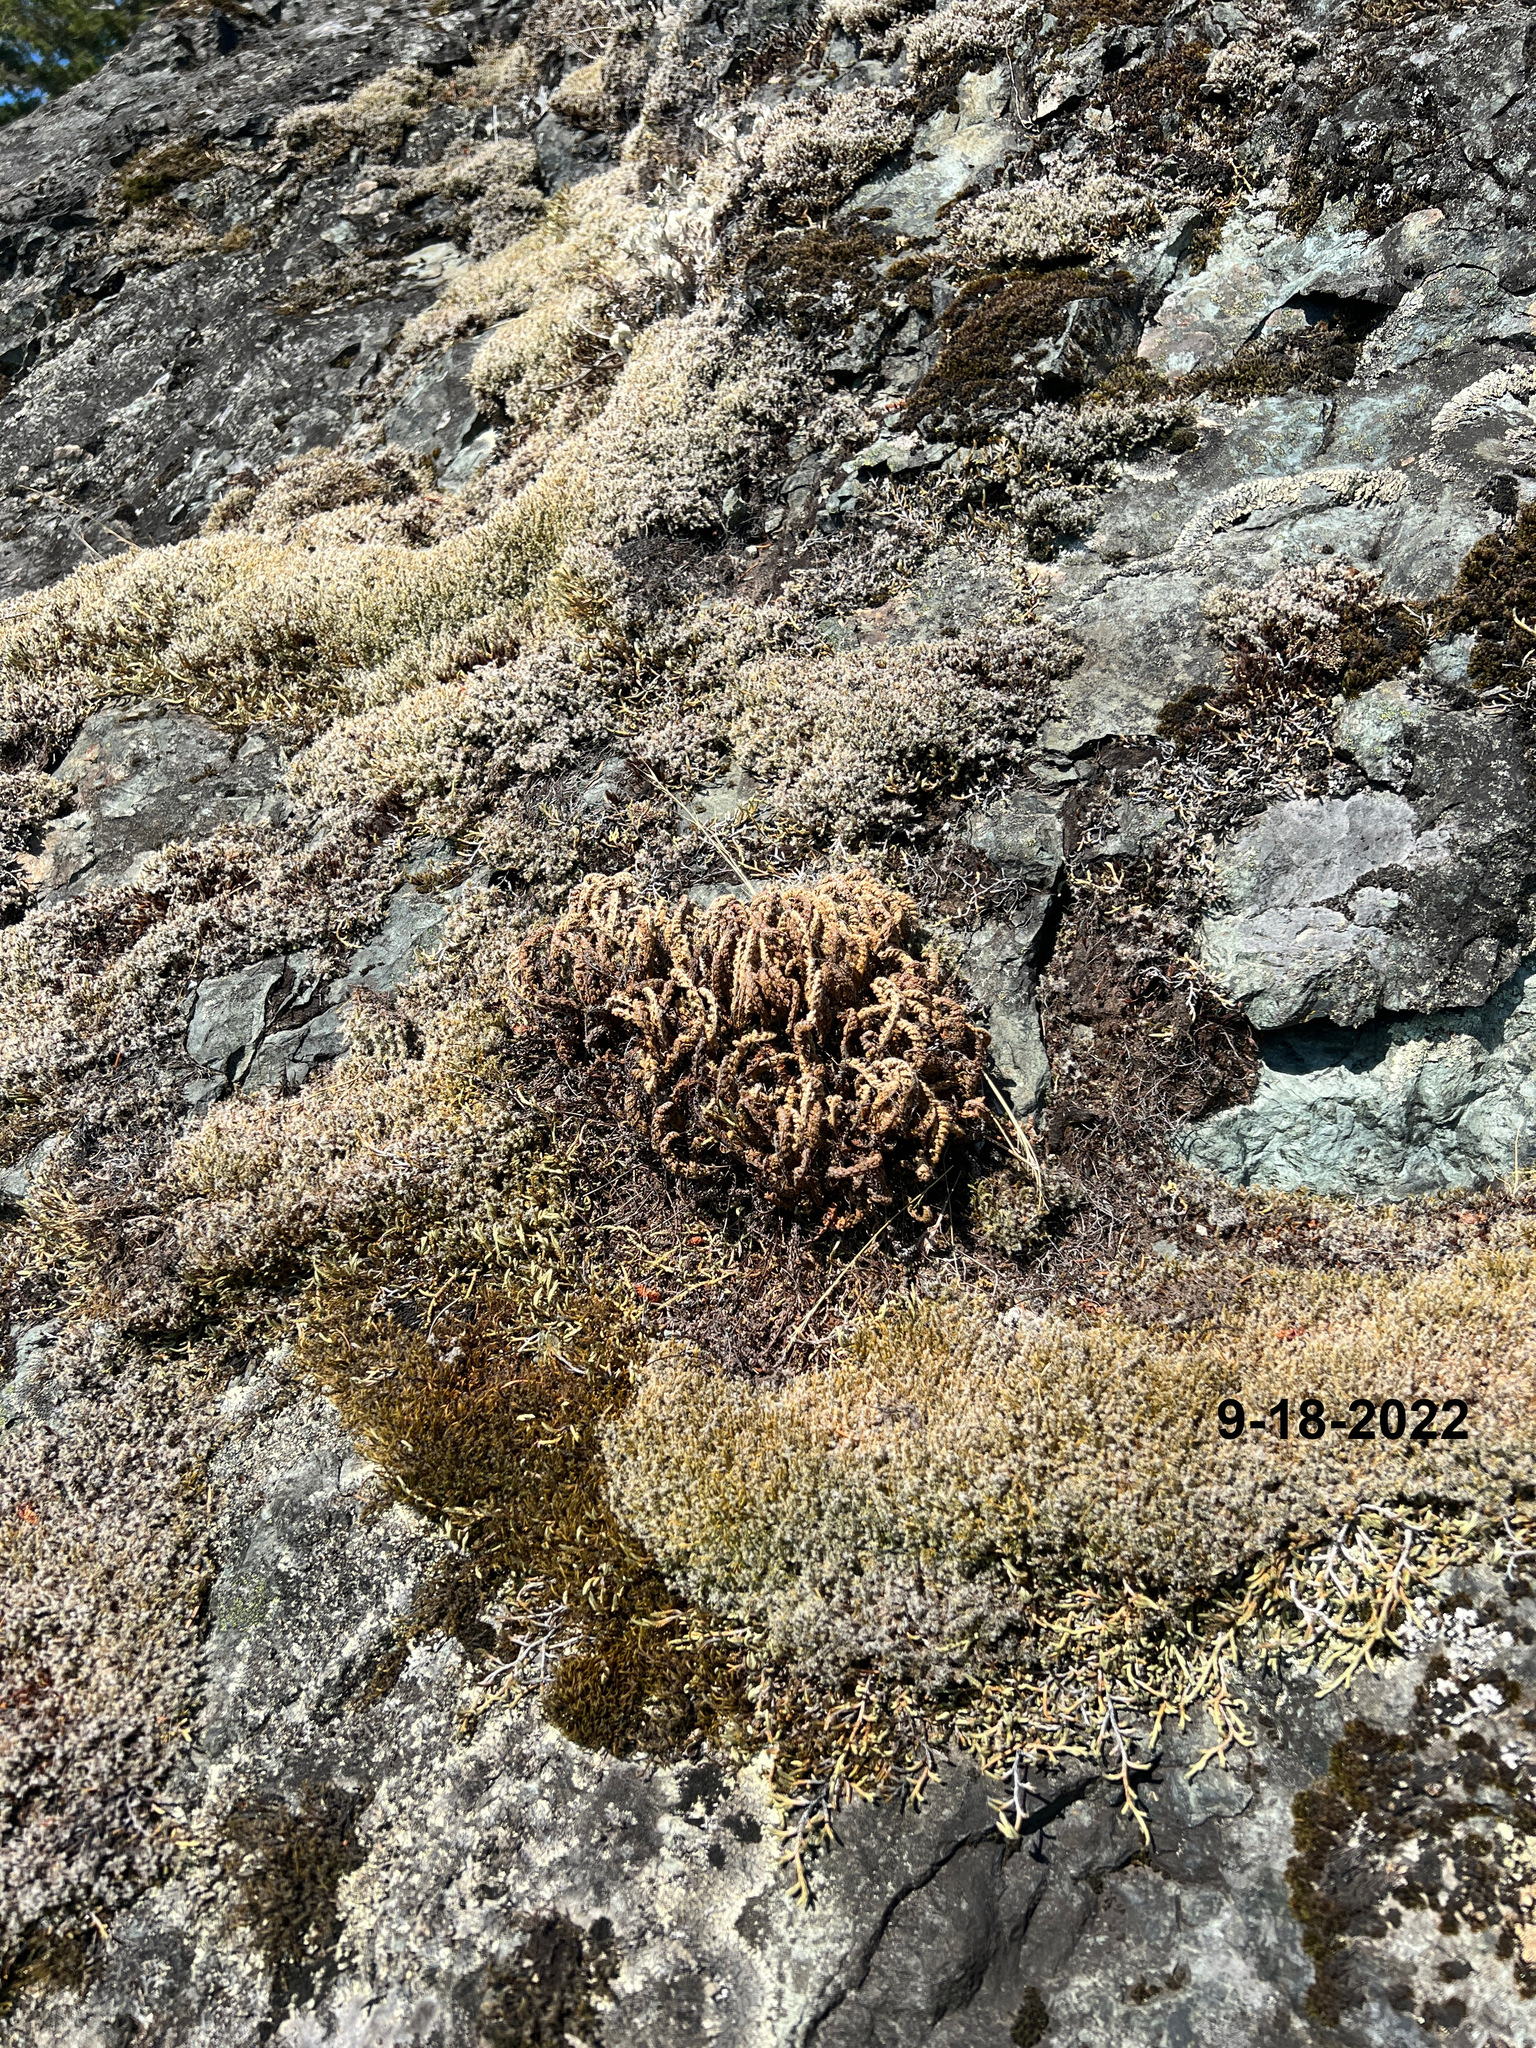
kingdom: Plantae
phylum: Tracheophyta
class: Polypodiopsida
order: Polypodiales
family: Pteridaceae
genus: Myriopteris
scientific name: Myriopteris gracillima
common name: Lace fern
